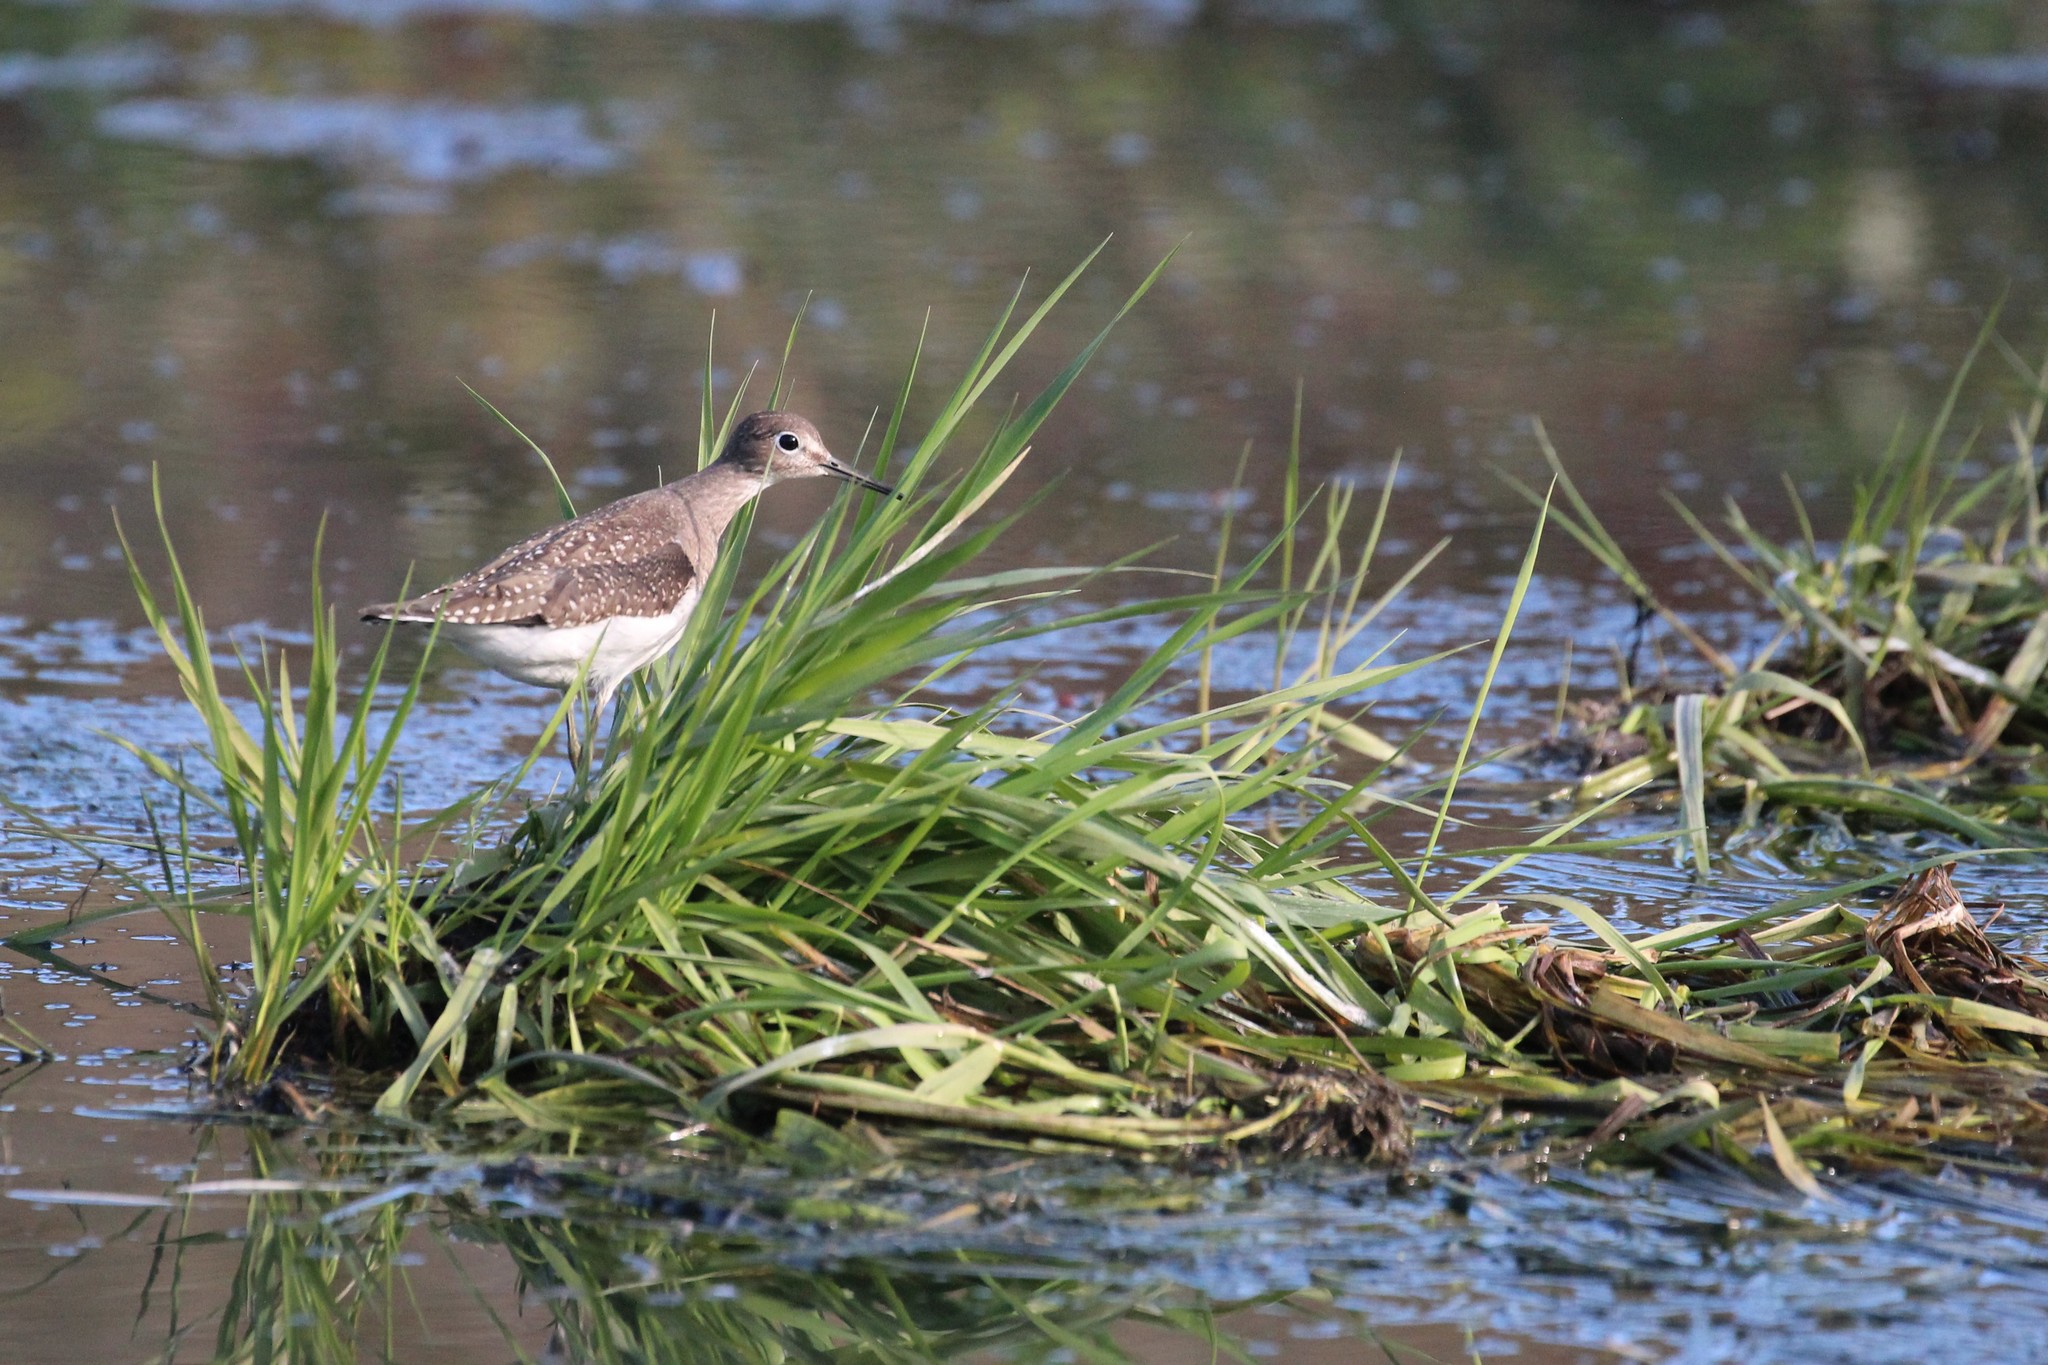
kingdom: Animalia
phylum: Chordata
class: Aves
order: Charadriiformes
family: Scolopacidae
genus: Tringa
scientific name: Tringa solitaria
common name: Solitary sandpiper
